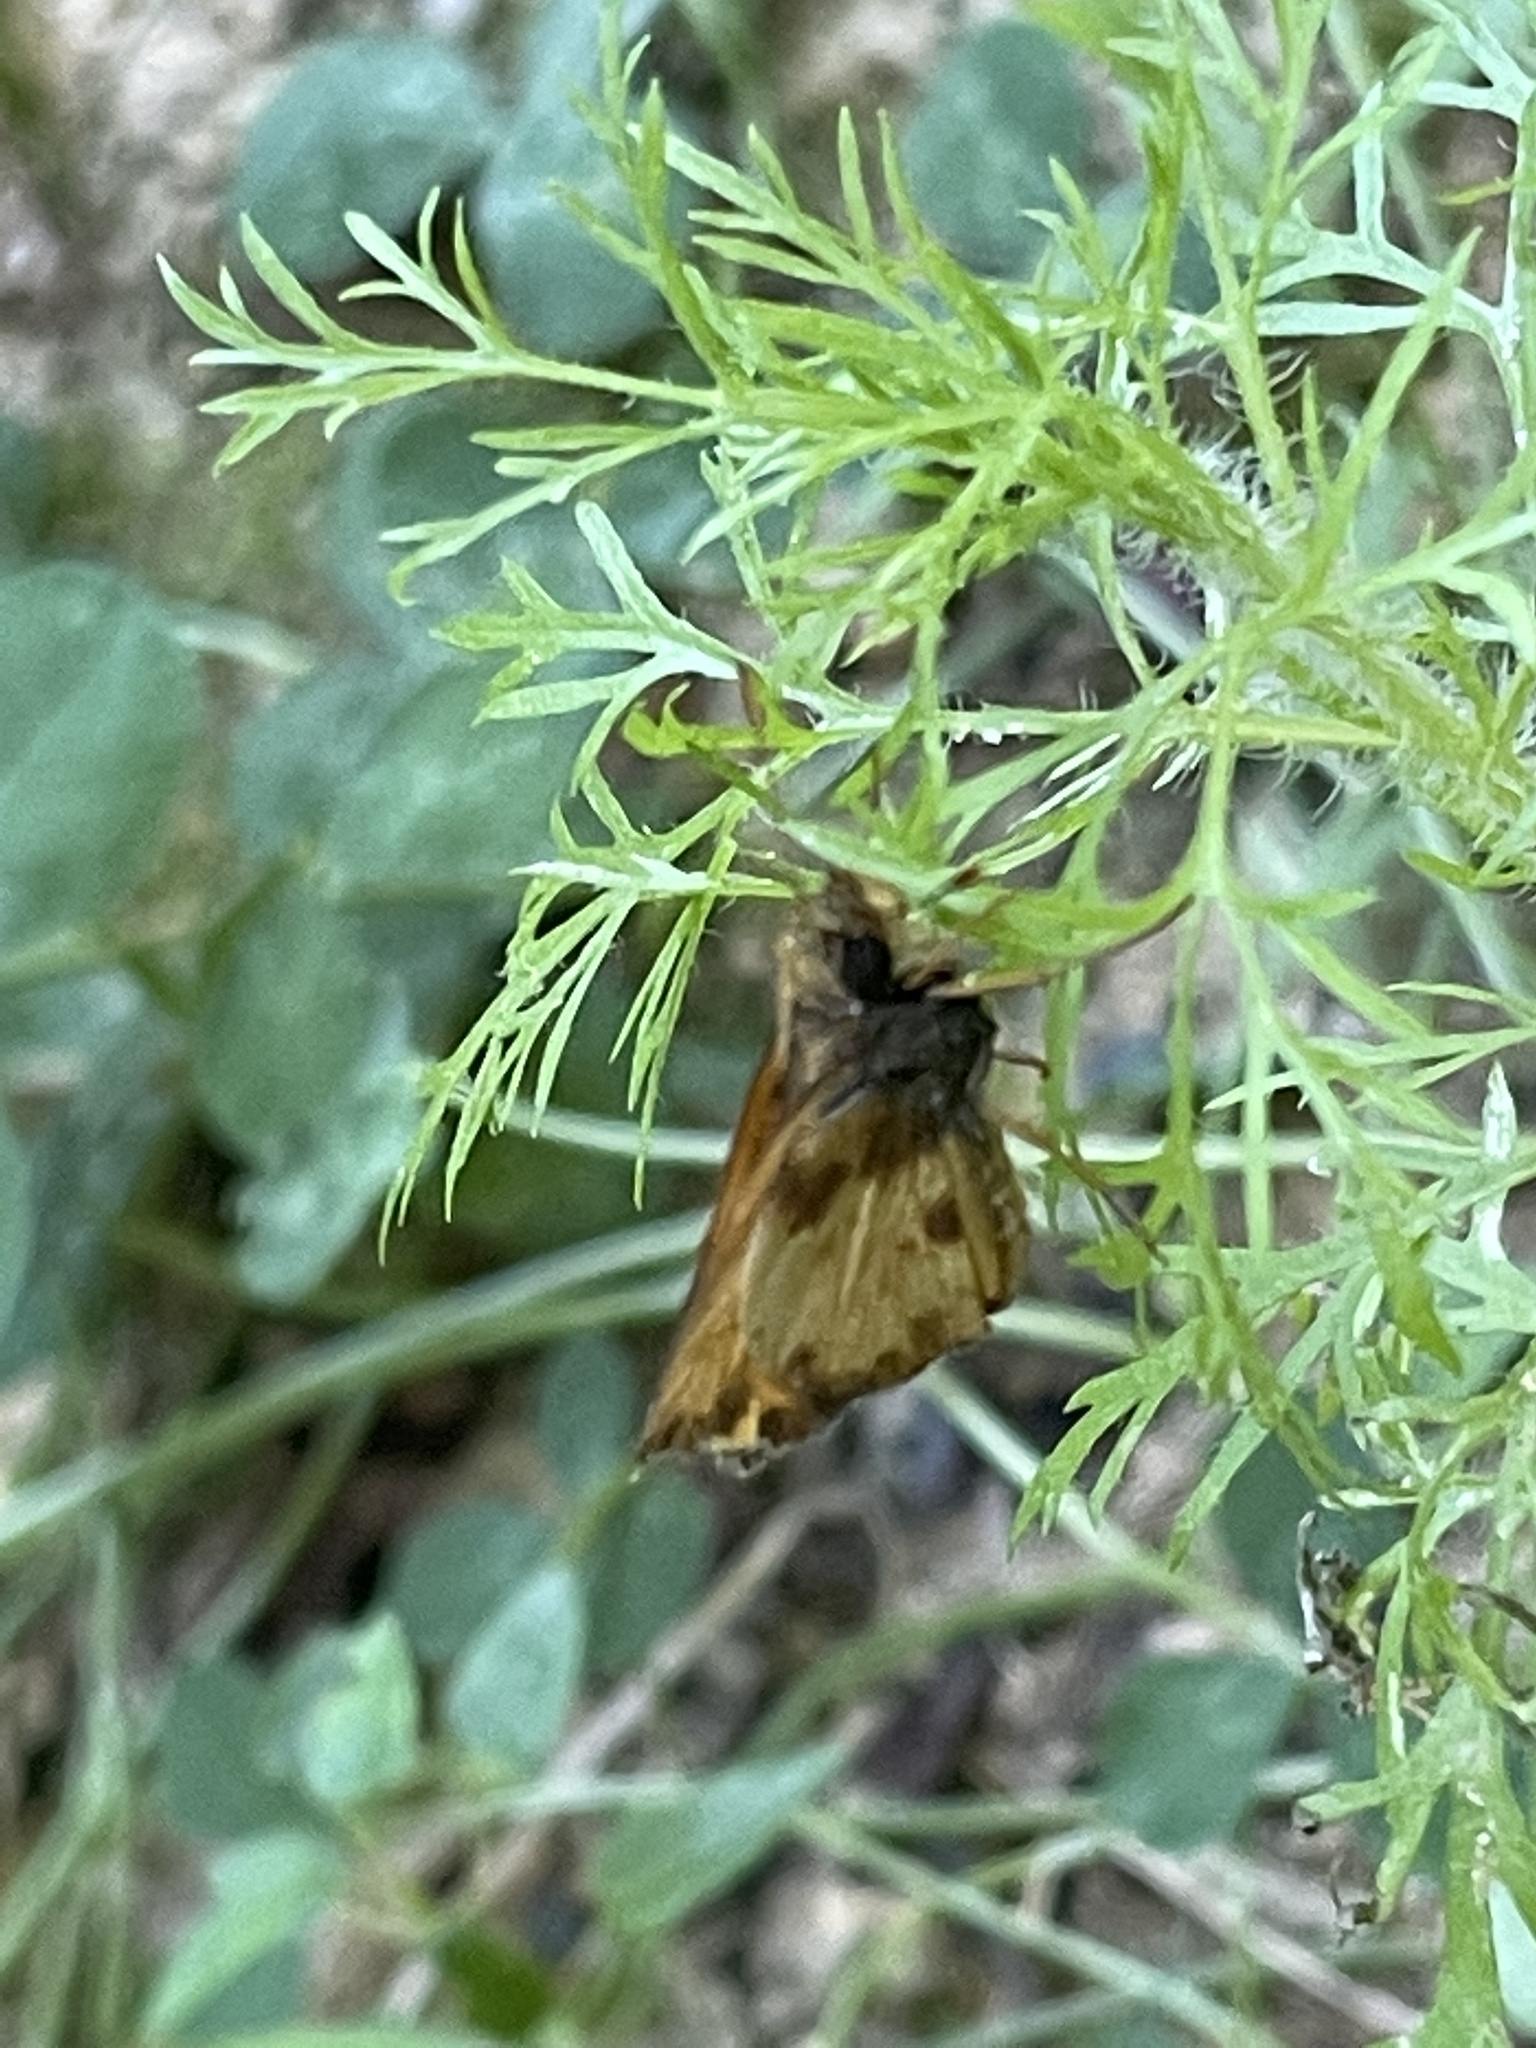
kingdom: Animalia
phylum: Arthropoda
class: Insecta
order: Lepidoptera
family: Hesperiidae
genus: Lon
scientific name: Lon zabulon
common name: Zabulon skipper
